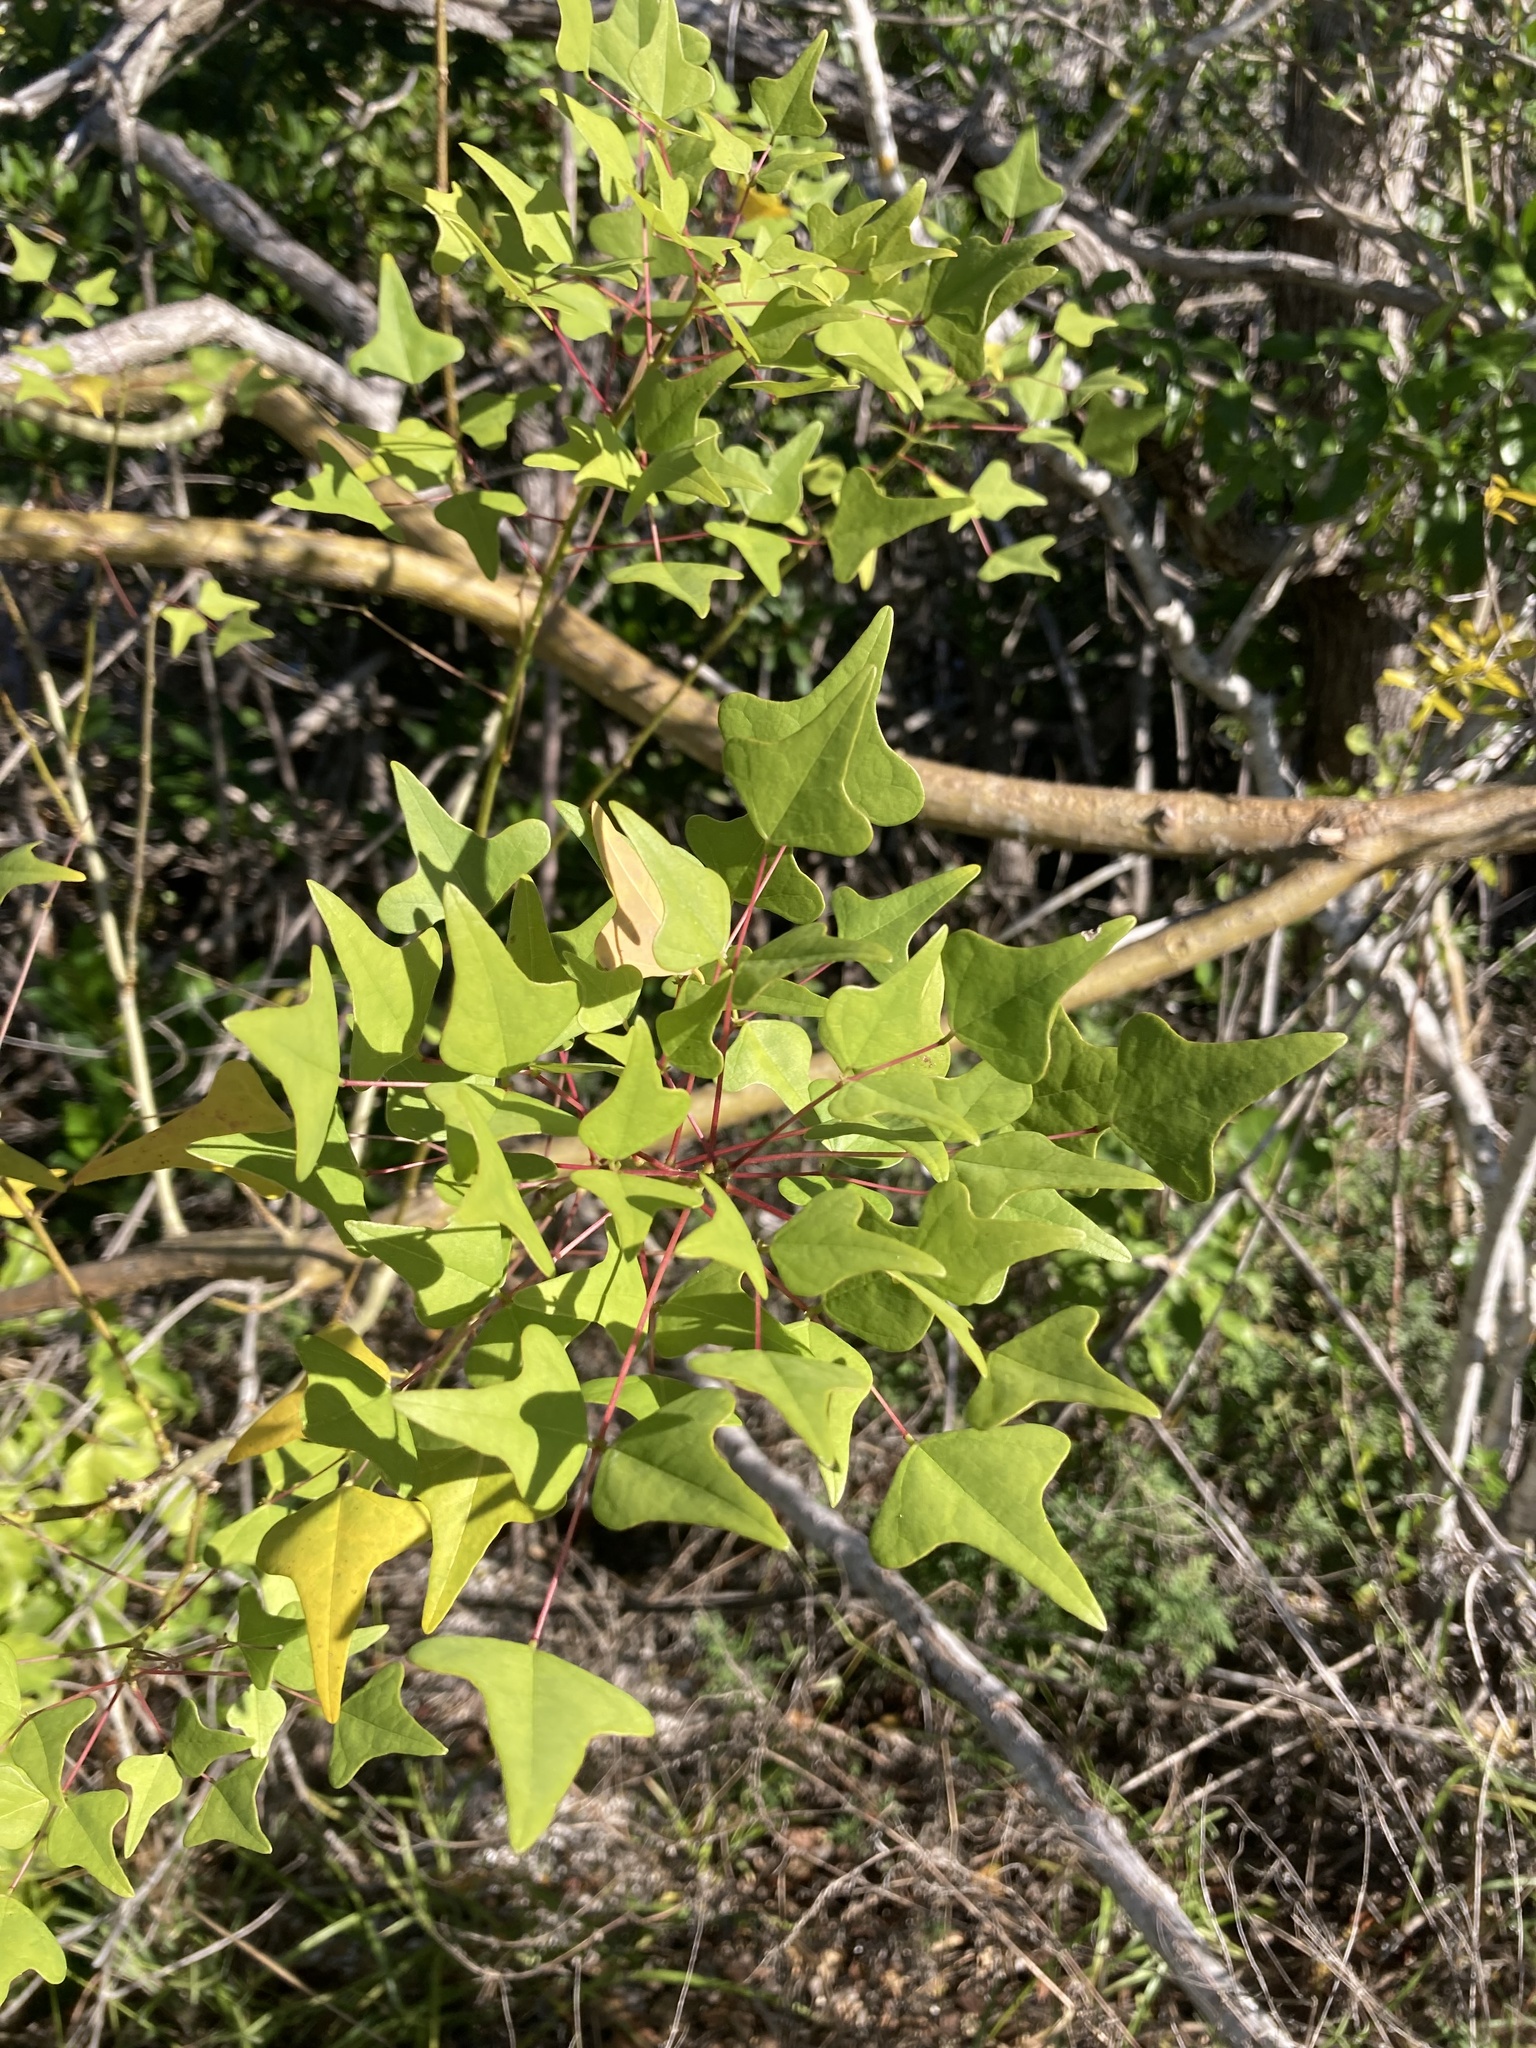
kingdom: Plantae
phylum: Tracheophyta
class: Magnoliopsida
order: Fabales
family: Fabaceae
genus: Erythrina
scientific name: Erythrina herbacea
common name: Coral-bean
